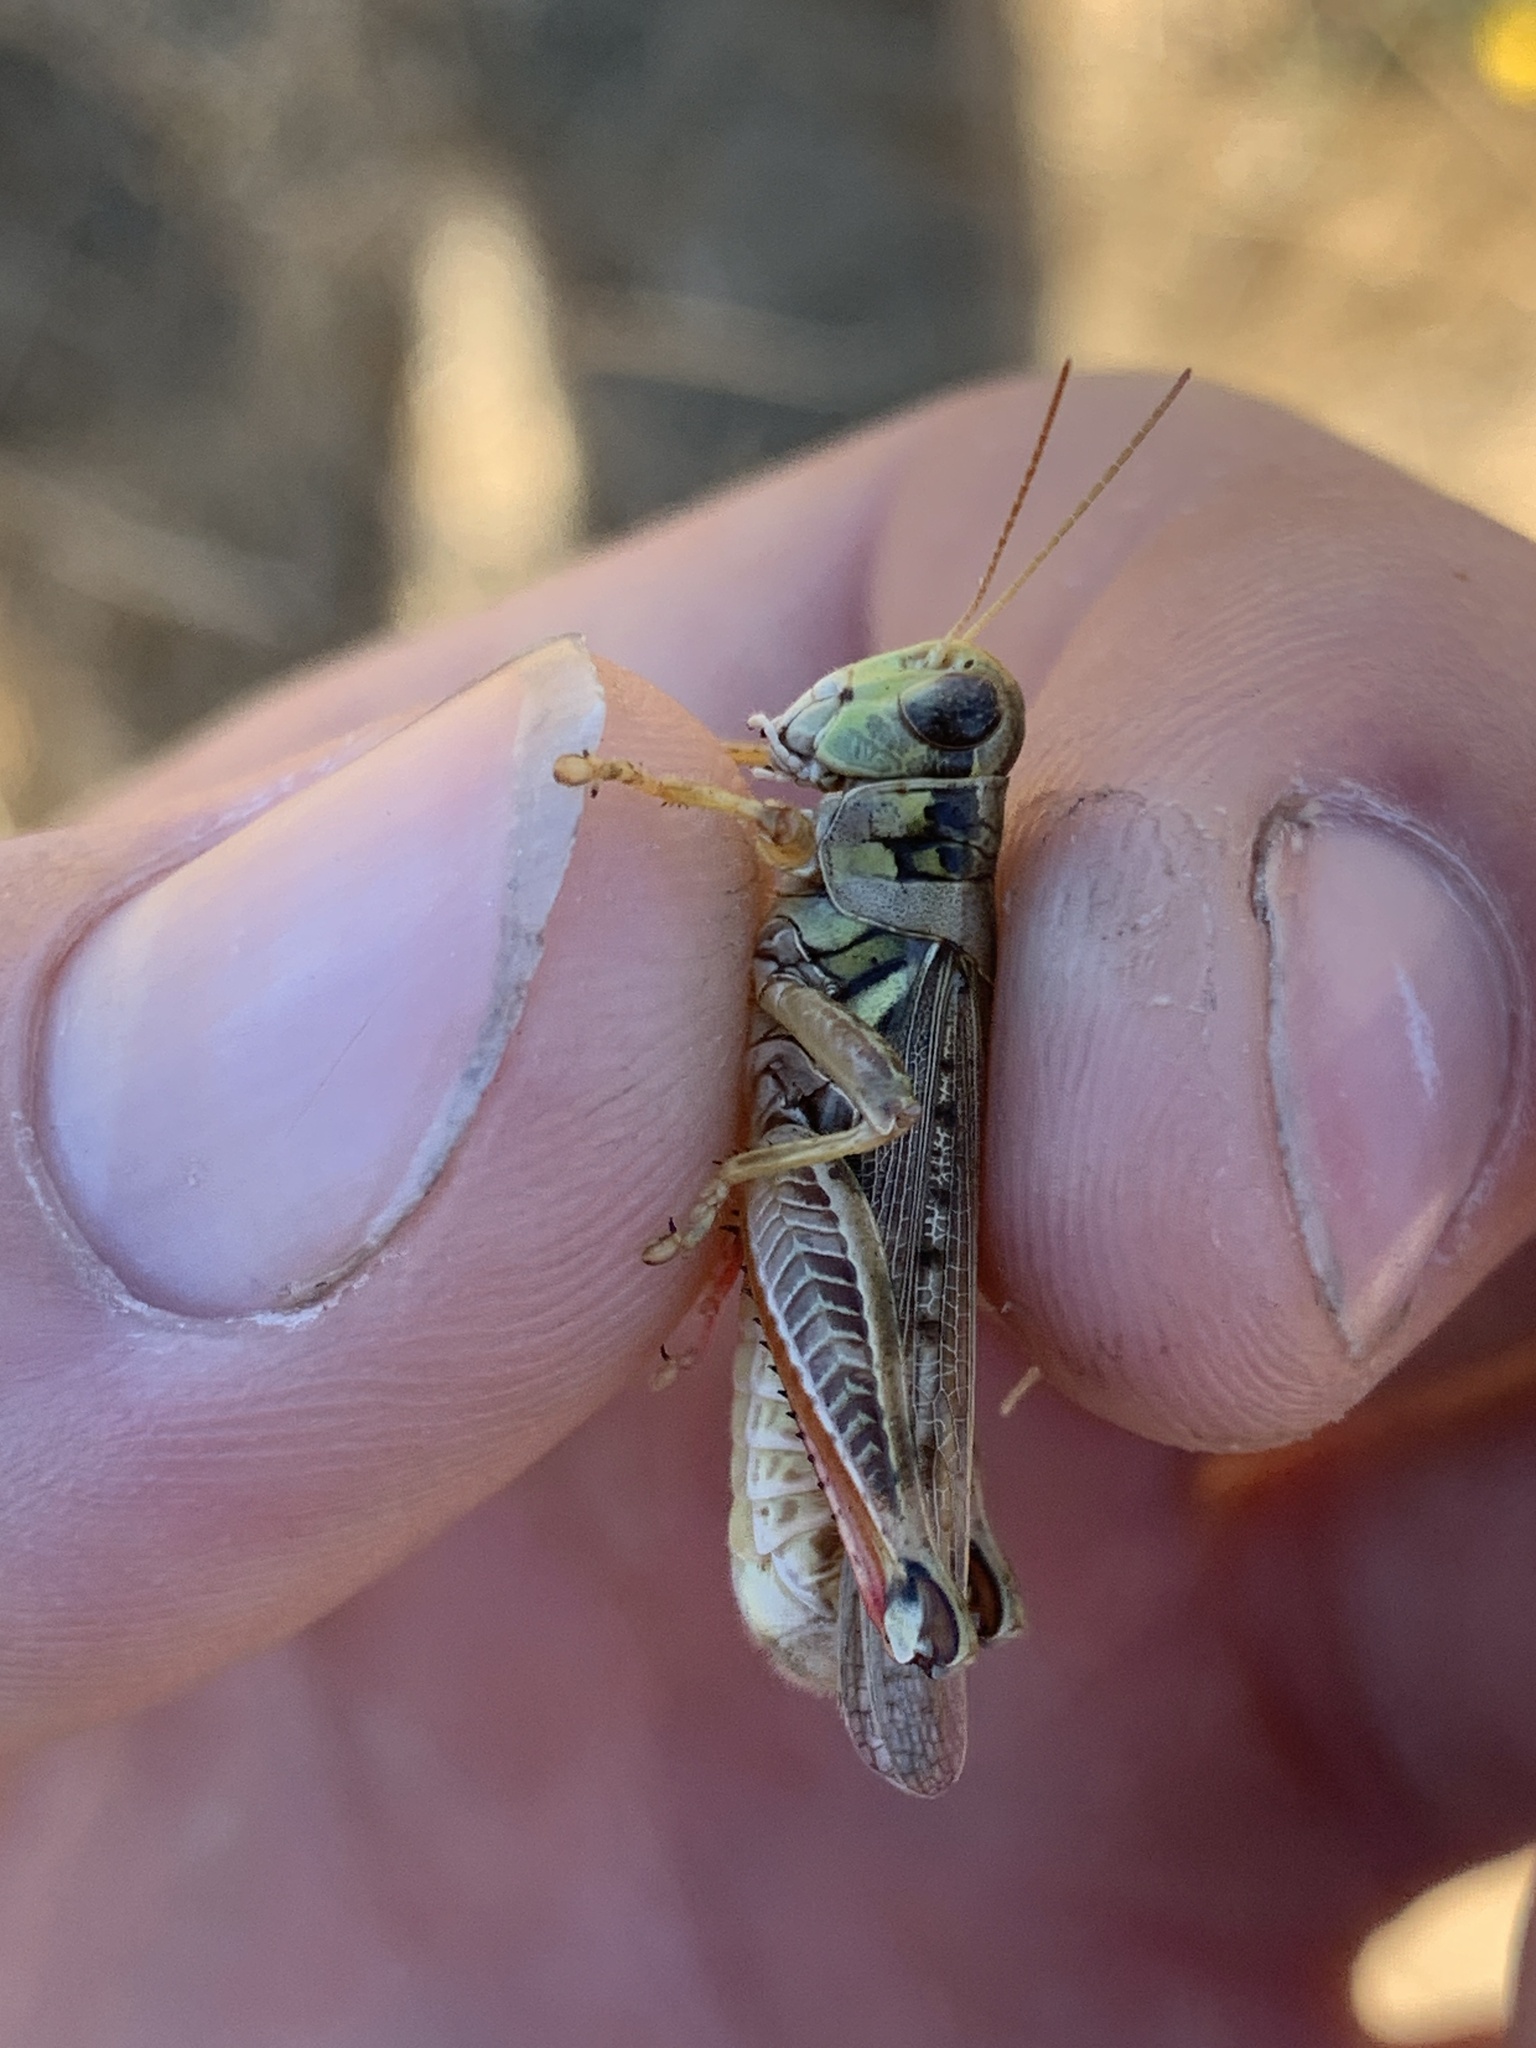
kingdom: Animalia
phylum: Arthropoda
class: Insecta
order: Orthoptera
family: Acrididae
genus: Melanoplus
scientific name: Melanoplus sanguinipes
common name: Migratory grasshopper
